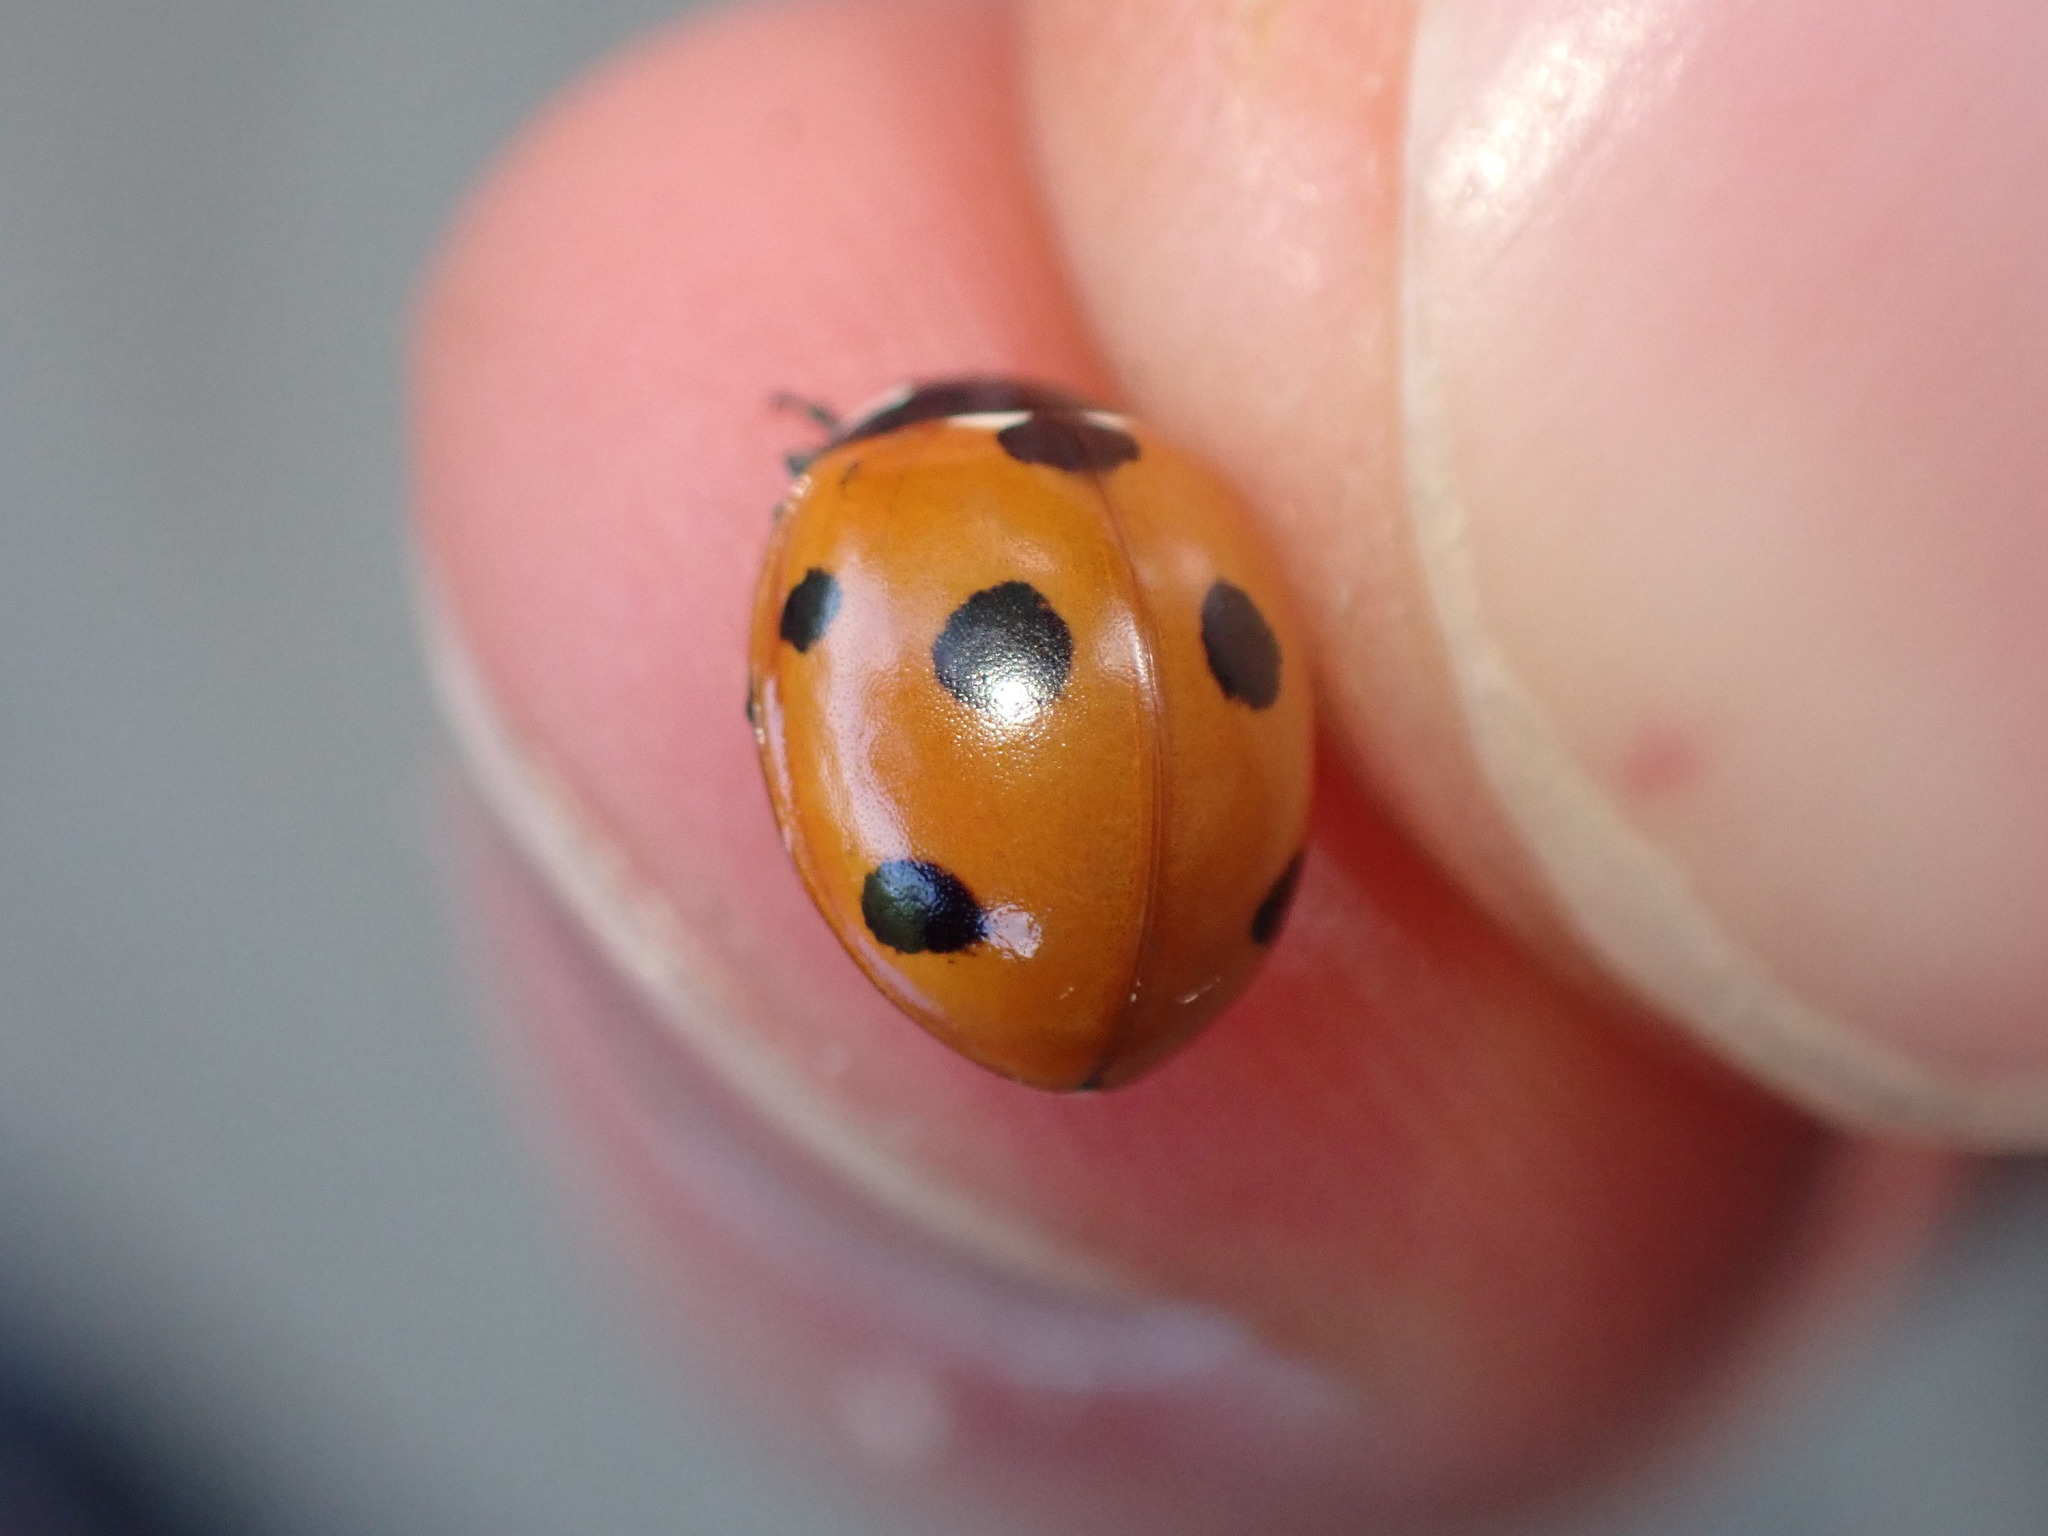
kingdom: Animalia
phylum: Arthropoda
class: Insecta
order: Coleoptera
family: Coccinellidae
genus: Coccinella
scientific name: Coccinella septempunctata
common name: Sevenspotted lady beetle
